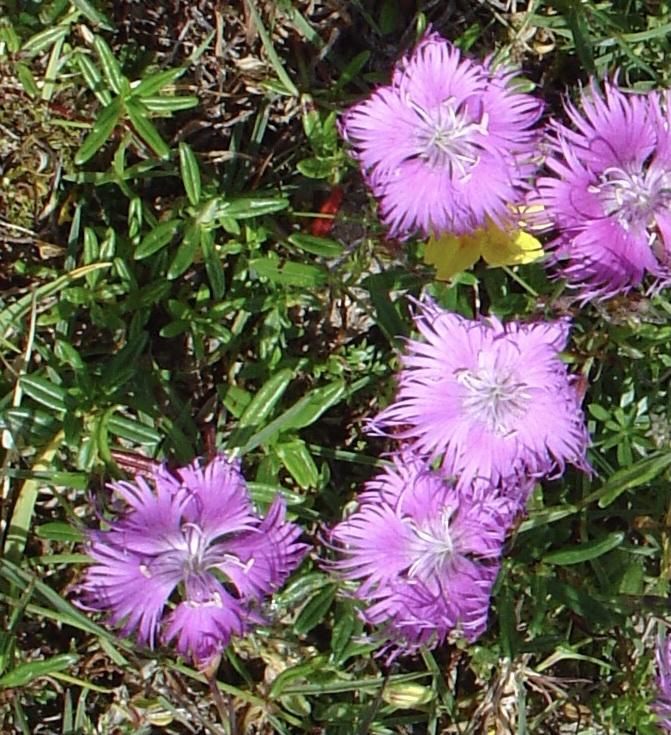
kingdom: Plantae
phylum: Tracheophyta
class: Magnoliopsida
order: Caryophyllales
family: Caryophyllaceae
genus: Dianthus
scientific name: Dianthus hyssopifolius
